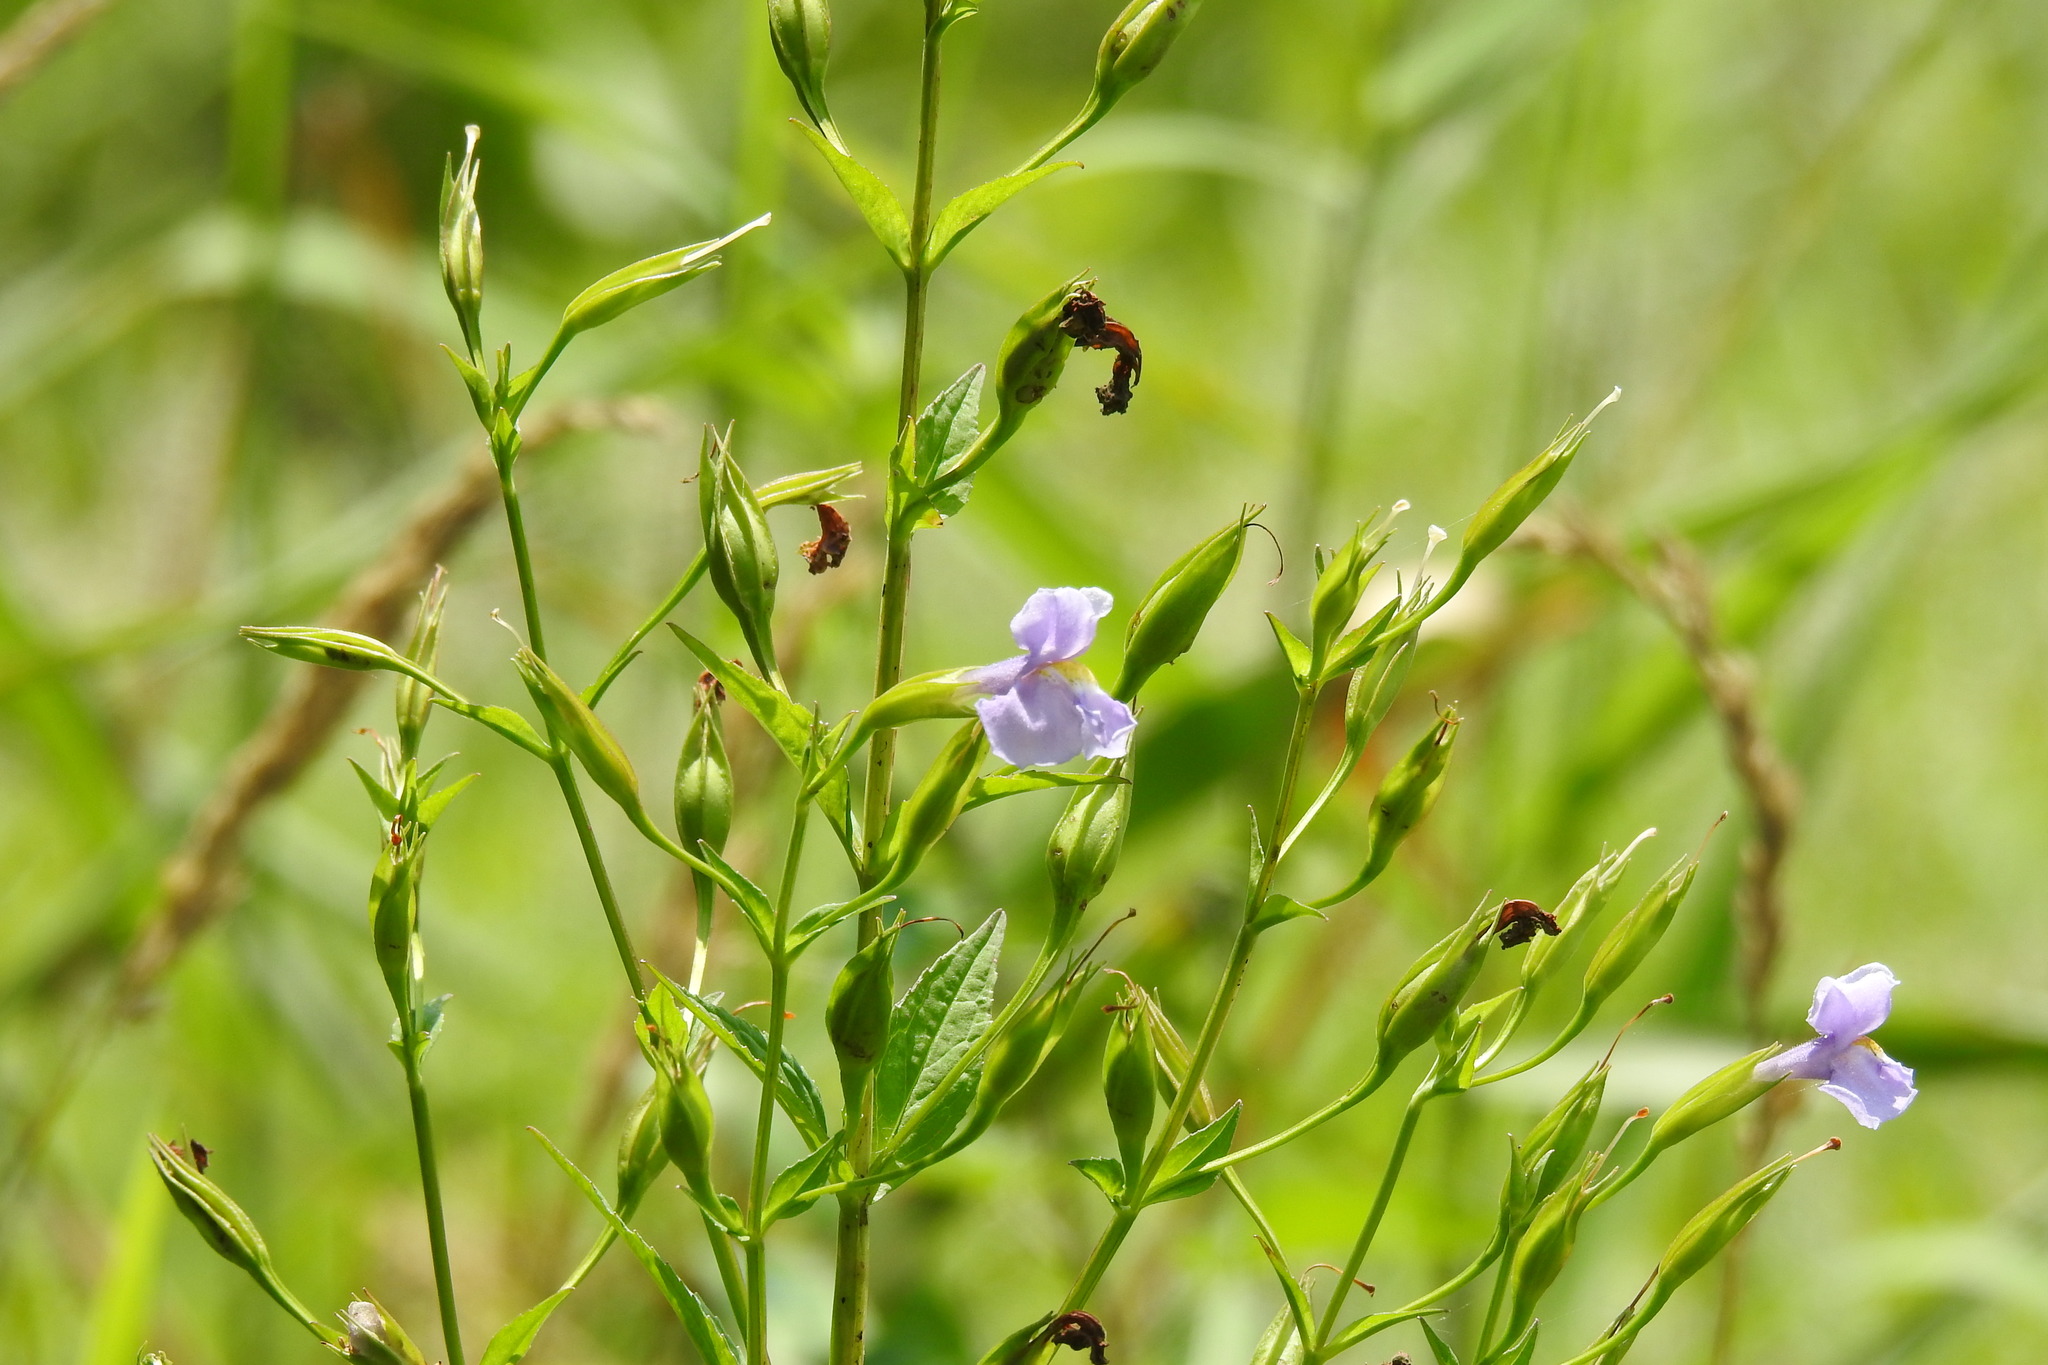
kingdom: Plantae
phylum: Tracheophyta
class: Magnoliopsida
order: Lamiales
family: Phrymaceae
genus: Mimulus
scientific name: Mimulus ringens
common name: Allegheny monkeyflower
